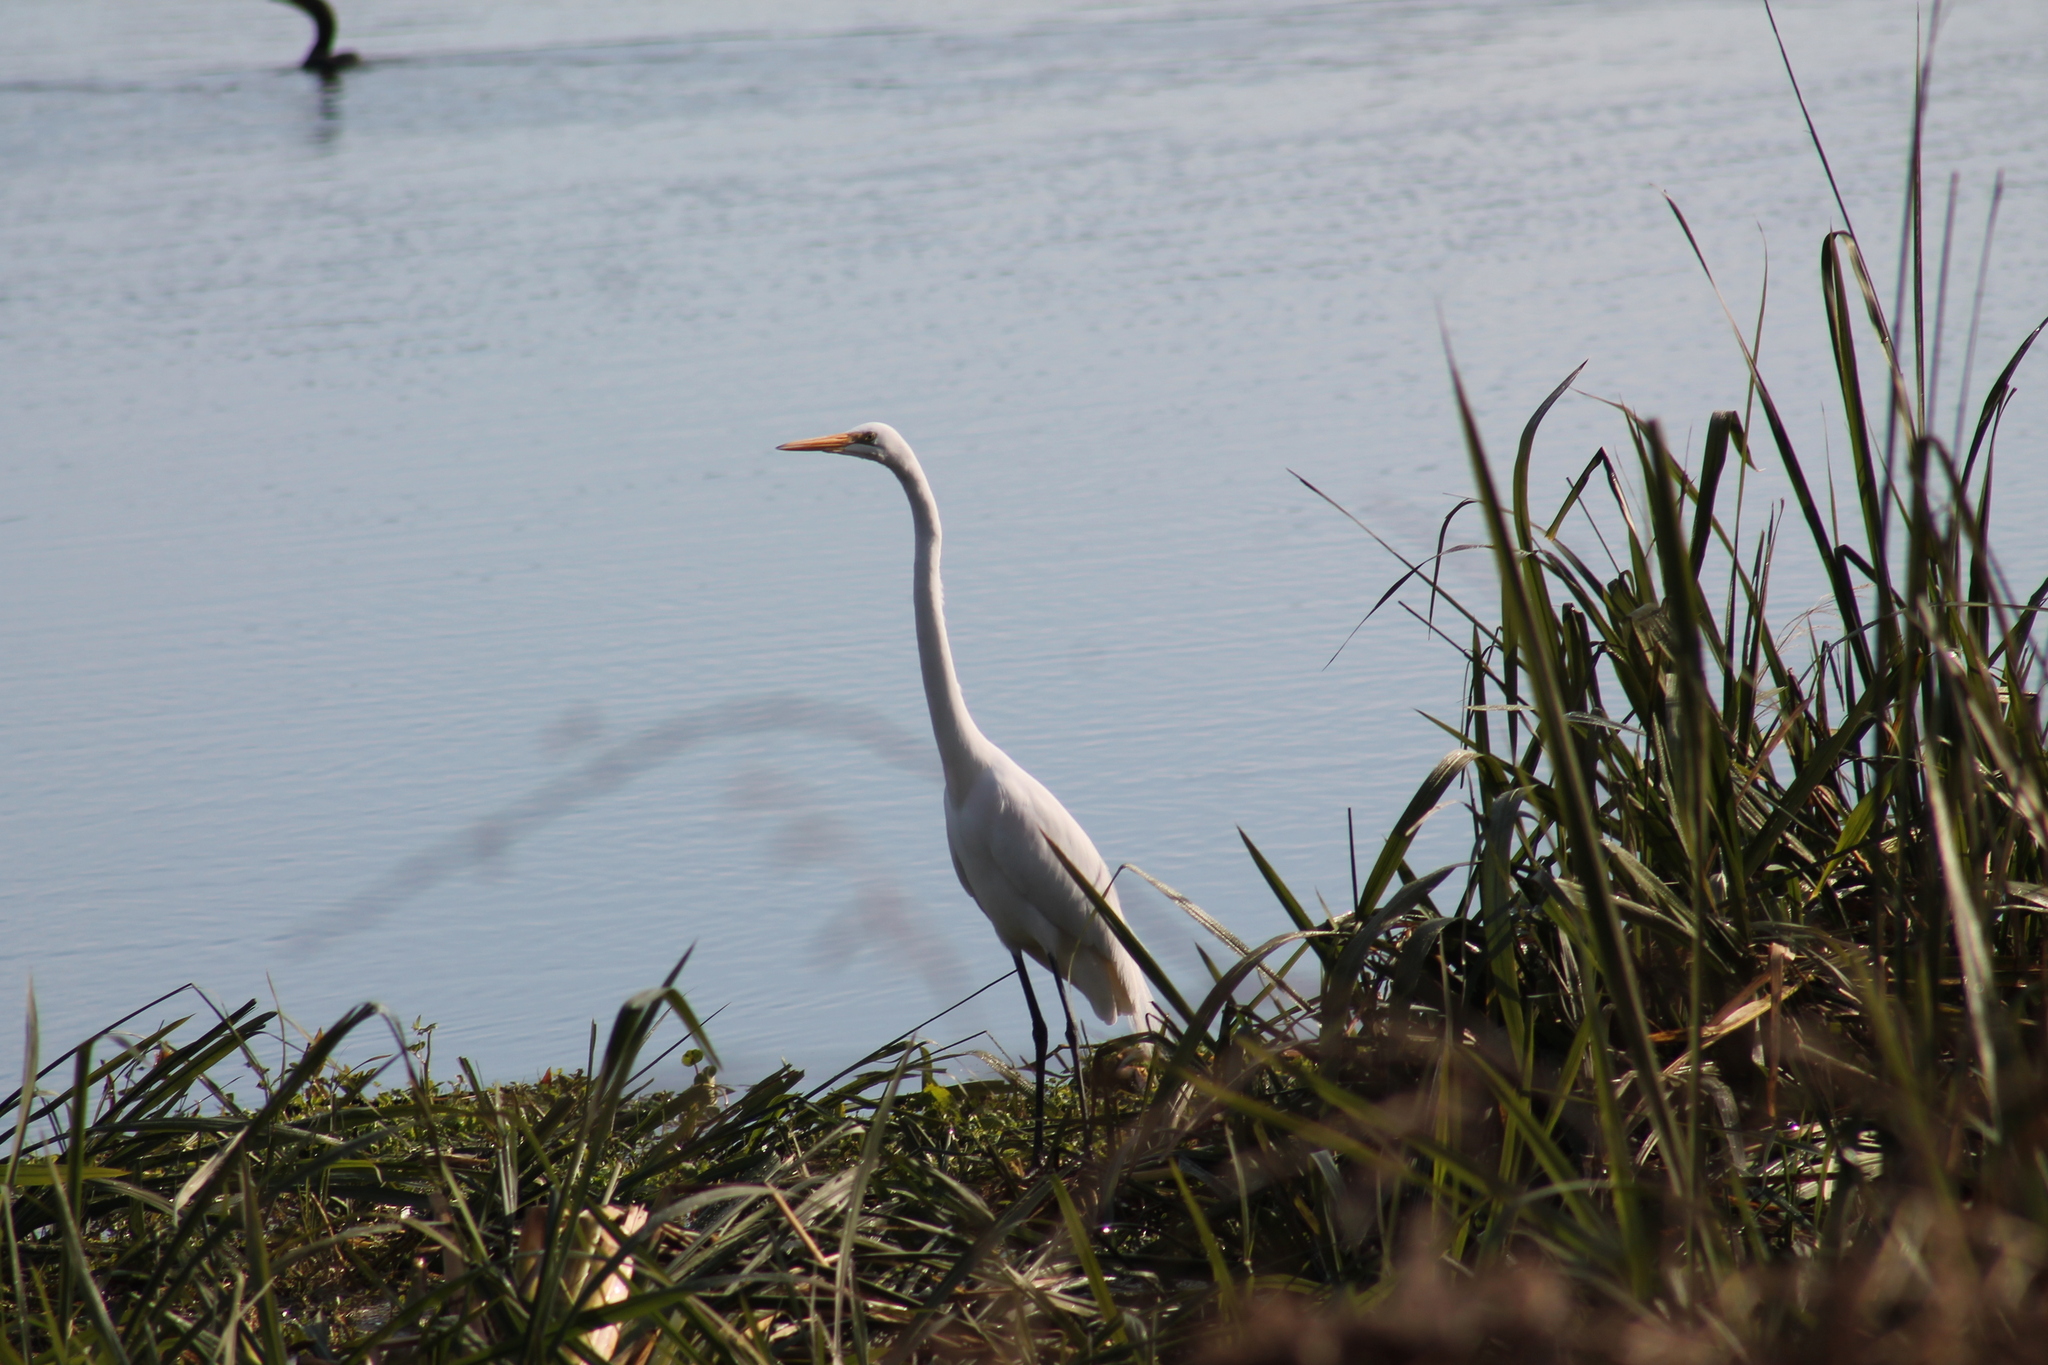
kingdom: Animalia
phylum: Chordata
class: Aves
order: Pelecaniformes
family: Ardeidae
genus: Ardea
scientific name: Ardea alba
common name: Great egret
